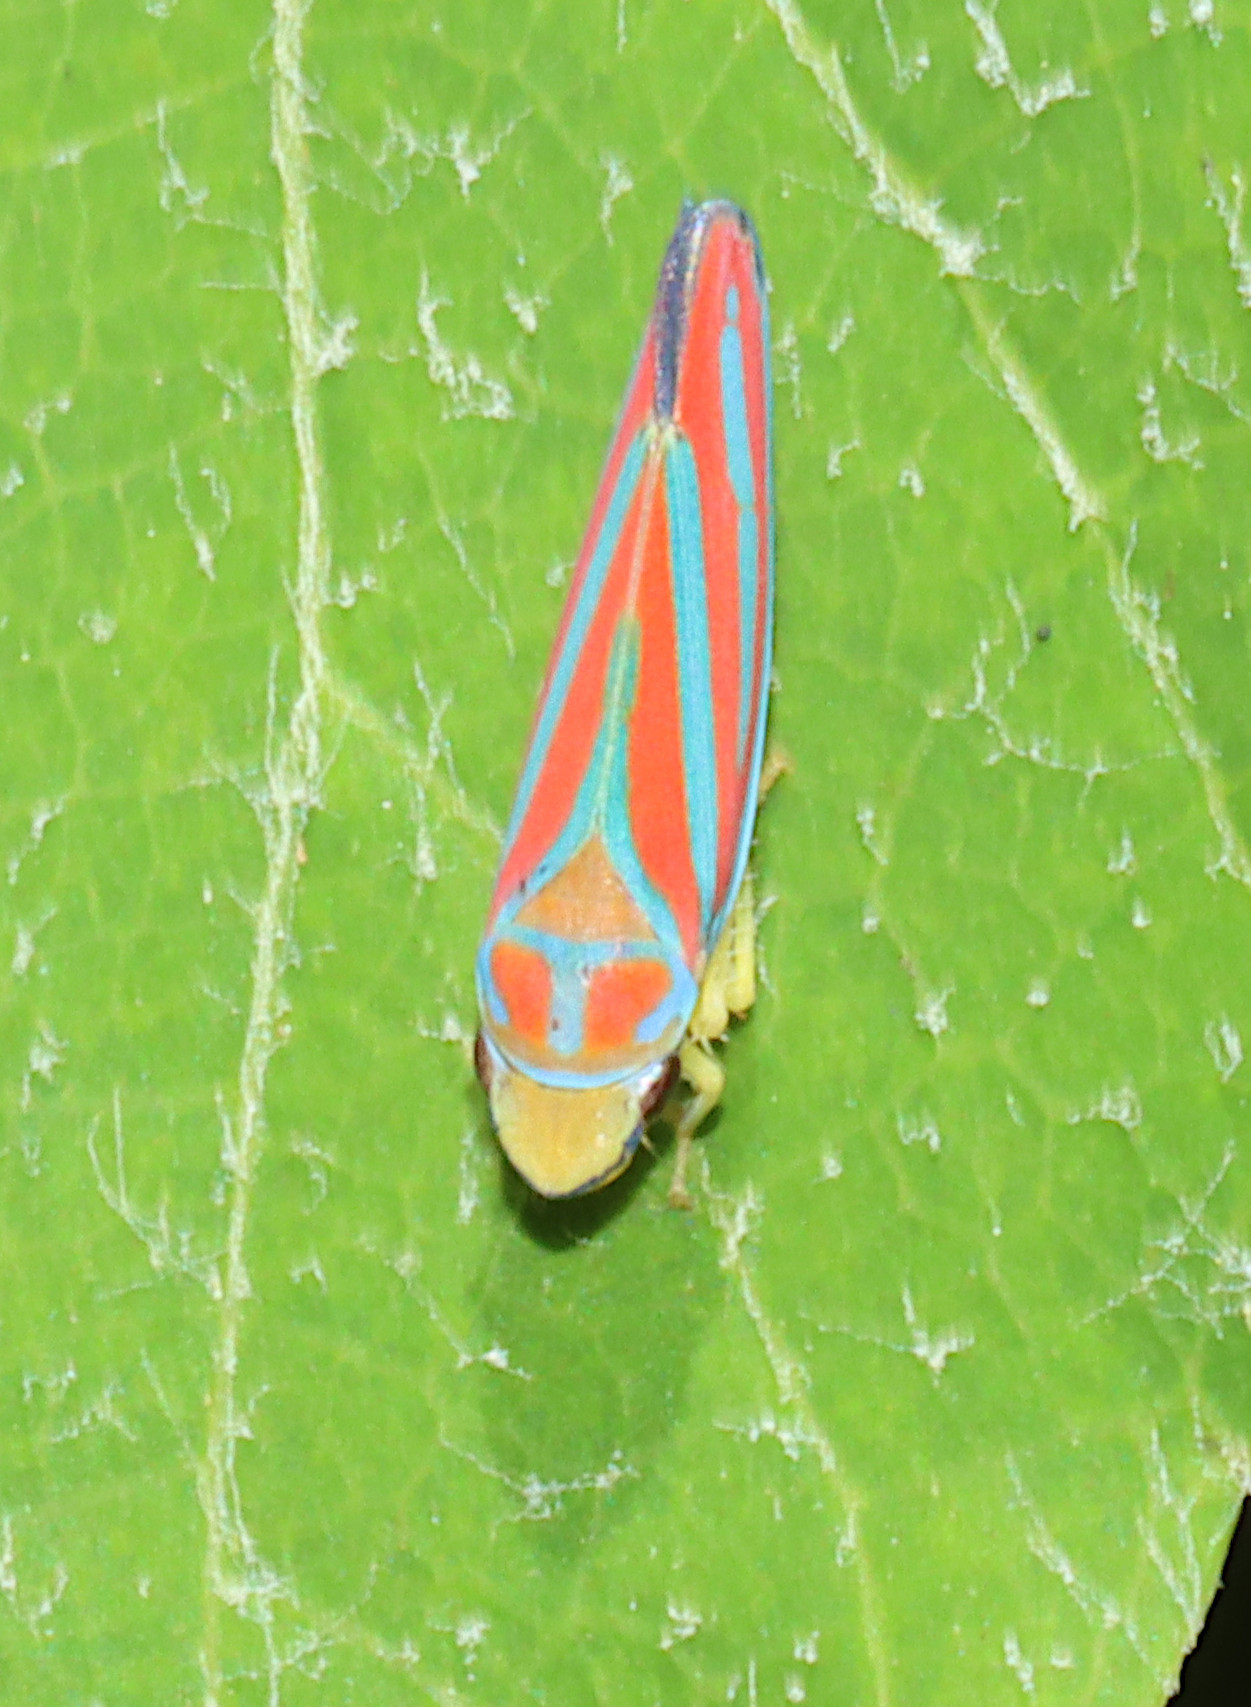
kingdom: Animalia
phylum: Arthropoda
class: Insecta
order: Hemiptera
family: Cicadellidae
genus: Graphocephala
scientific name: Graphocephala coccinea
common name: Candy-striped leafhopper
